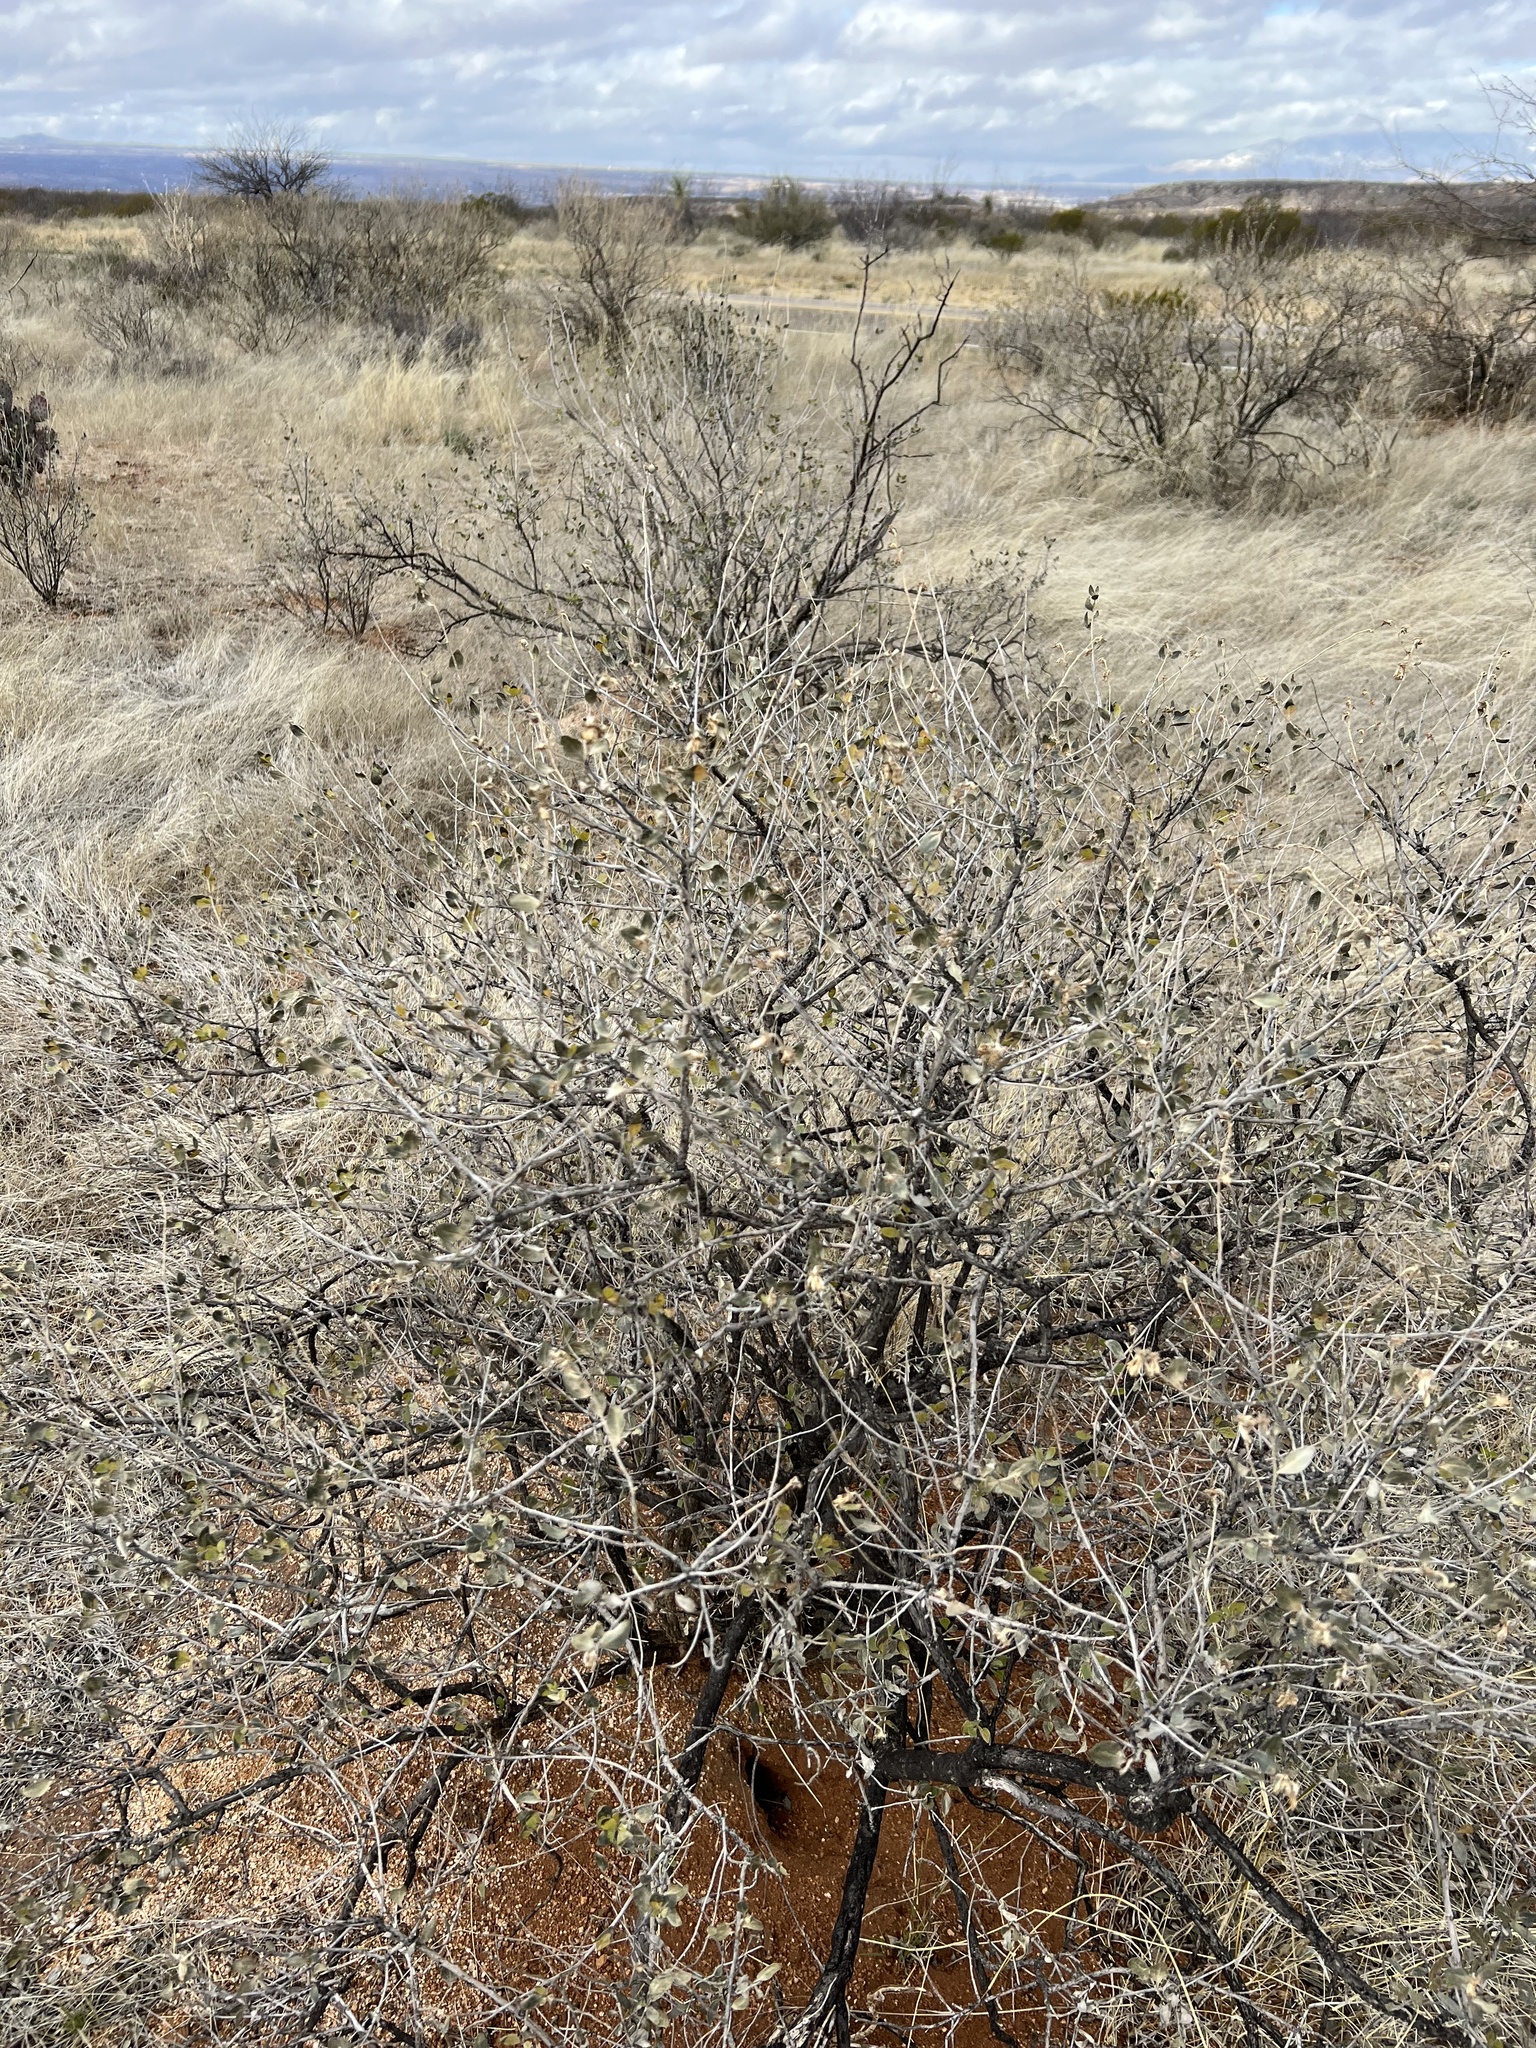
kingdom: Plantae
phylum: Tracheophyta
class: Magnoliopsida
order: Asterales
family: Asteraceae
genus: Flourensia
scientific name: Flourensia cernua
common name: Varnishbush
